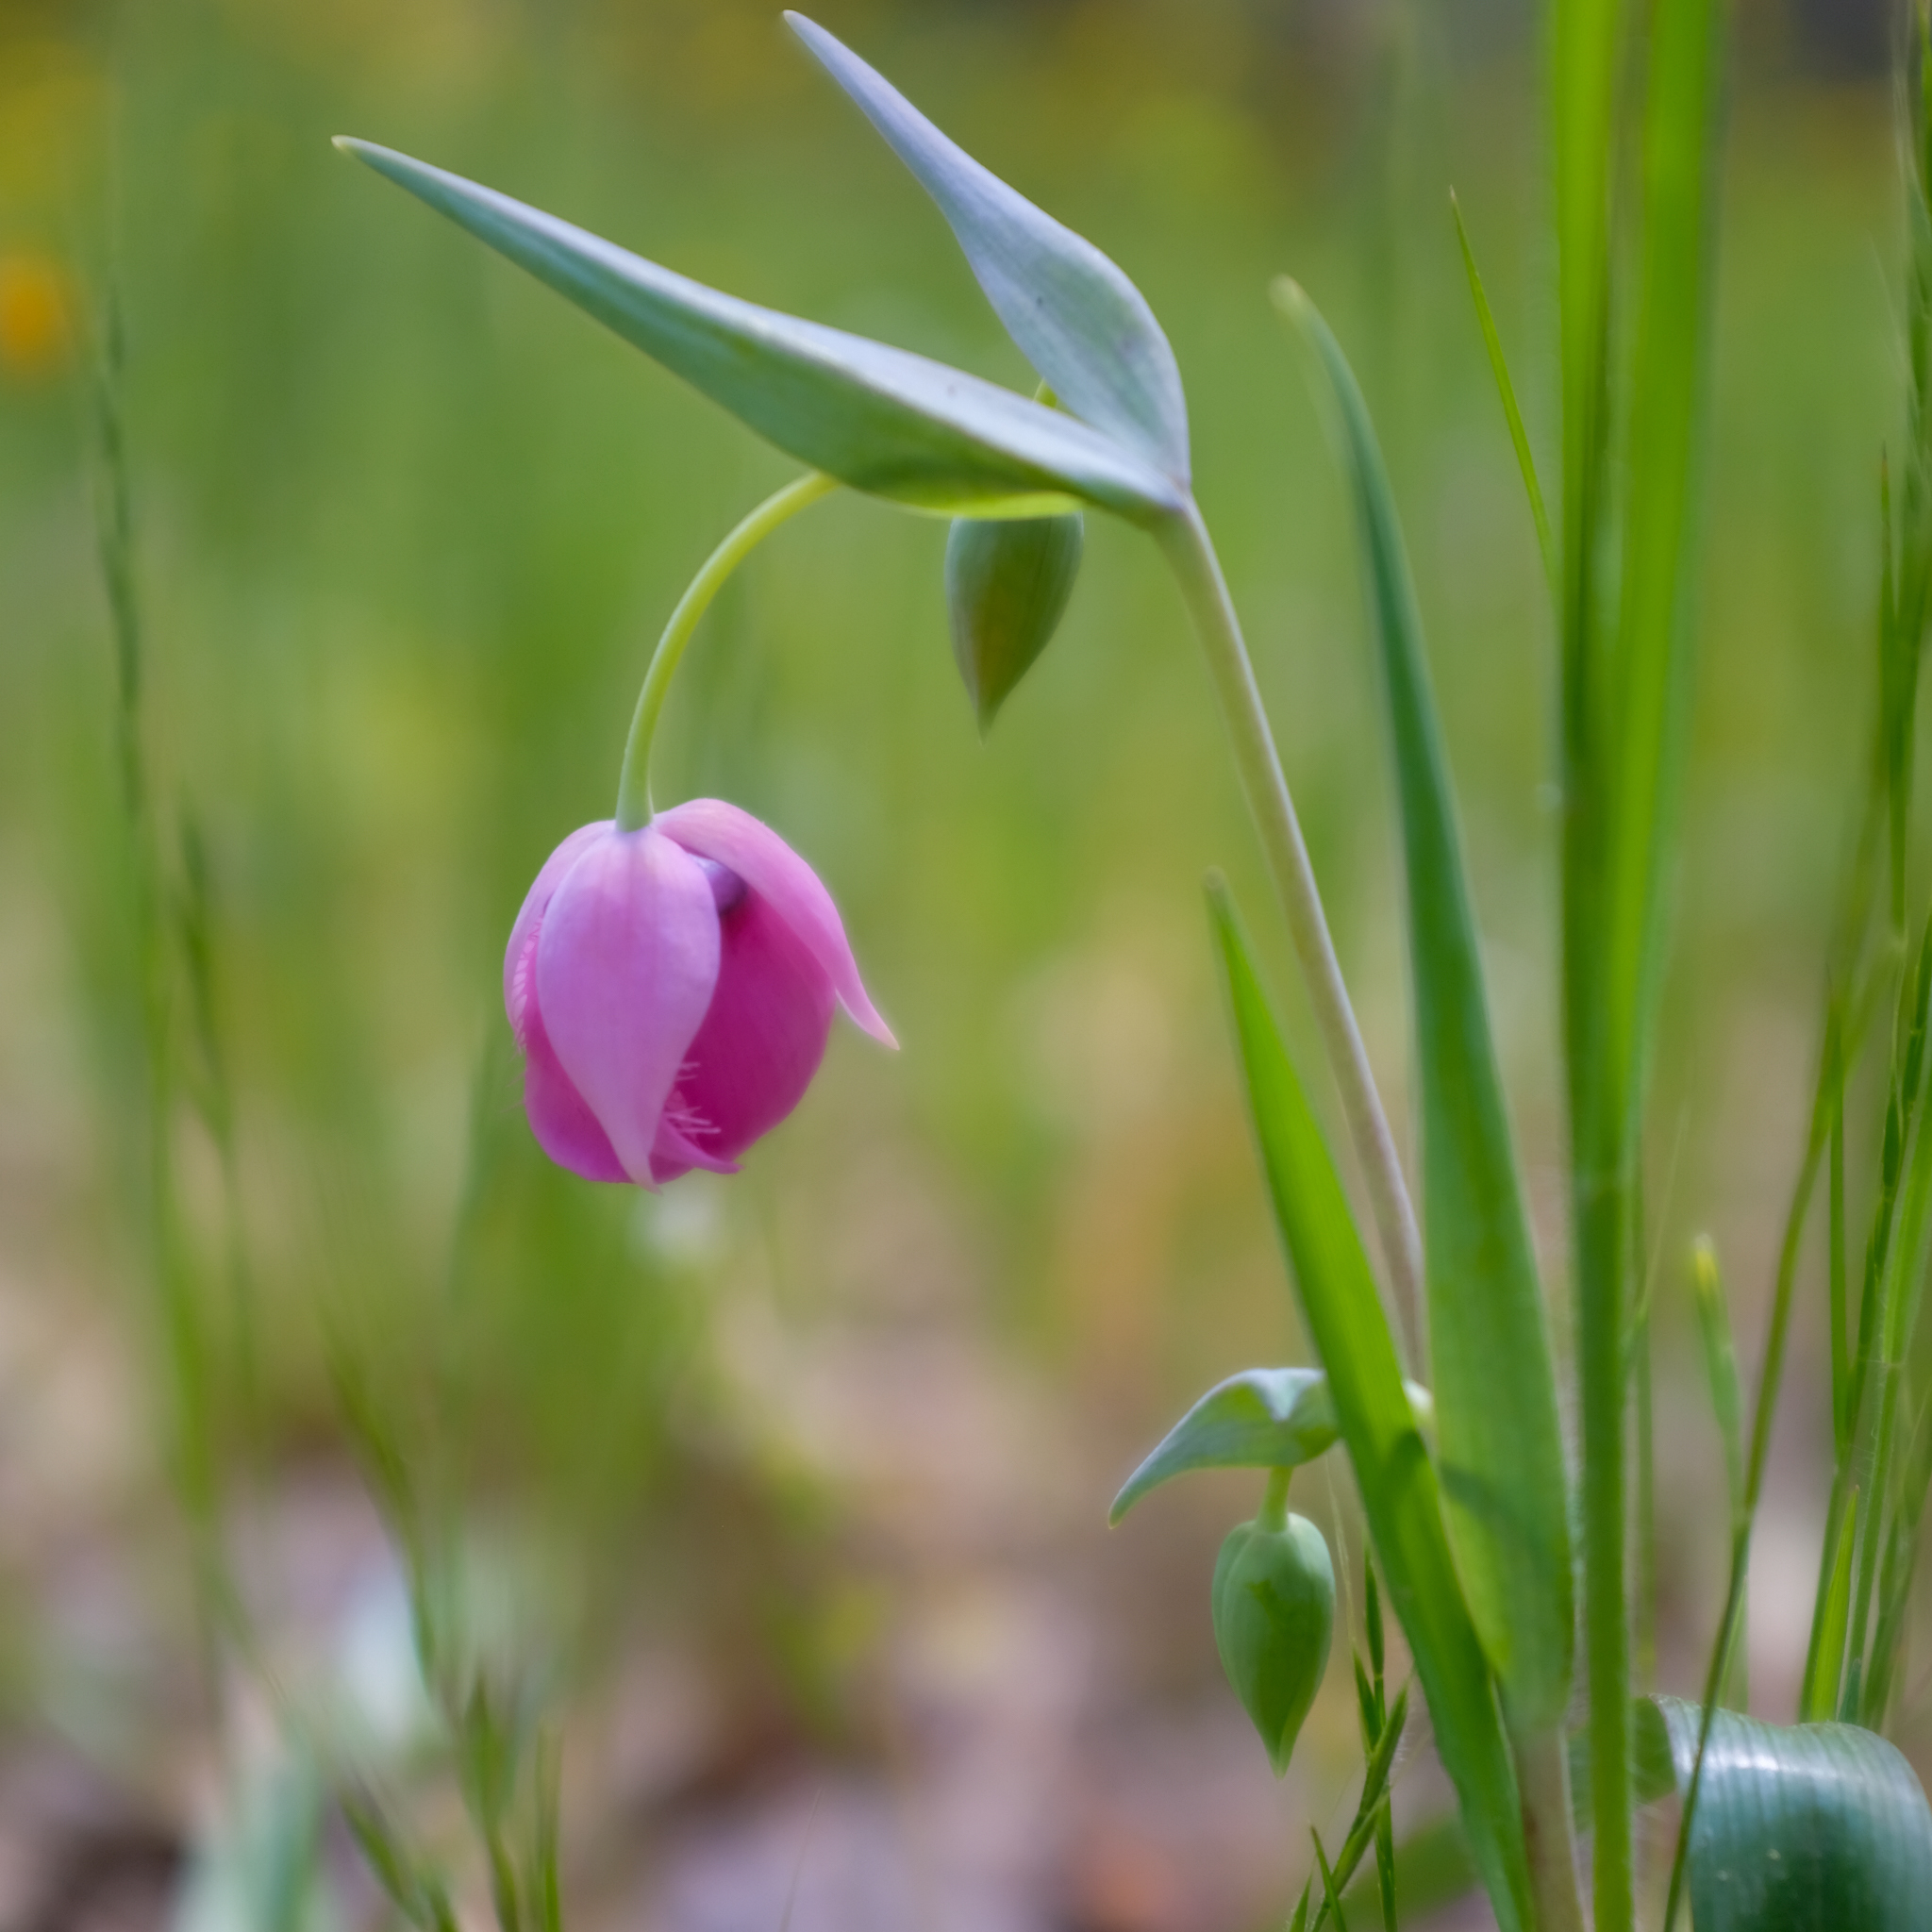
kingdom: Plantae
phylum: Tracheophyta
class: Liliopsida
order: Liliales
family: Liliaceae
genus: Calochortus
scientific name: Calochortus amoenus
